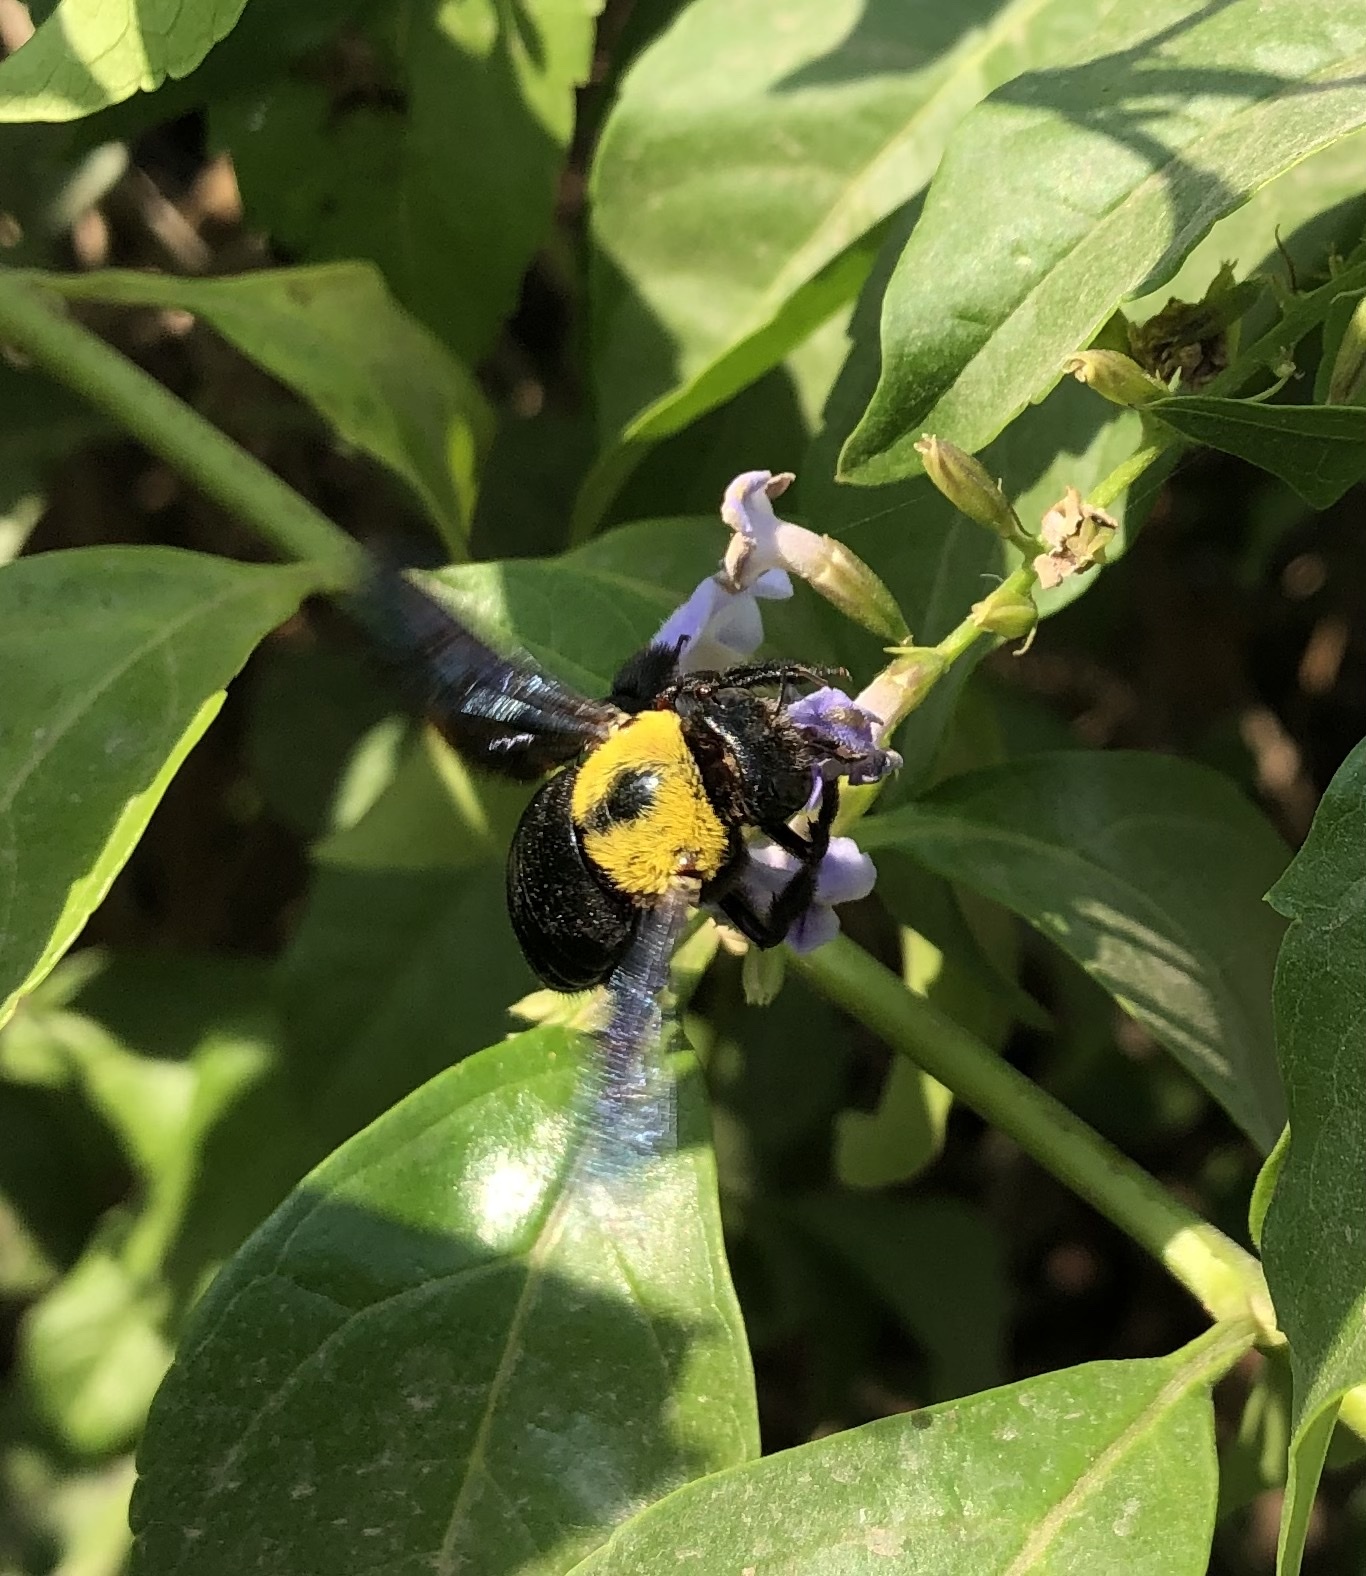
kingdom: Animalia
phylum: Arthropoda
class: Insecta
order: Hymenoptera
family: Apidae
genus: Xylocopa
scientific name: Xylocopa pubescens
